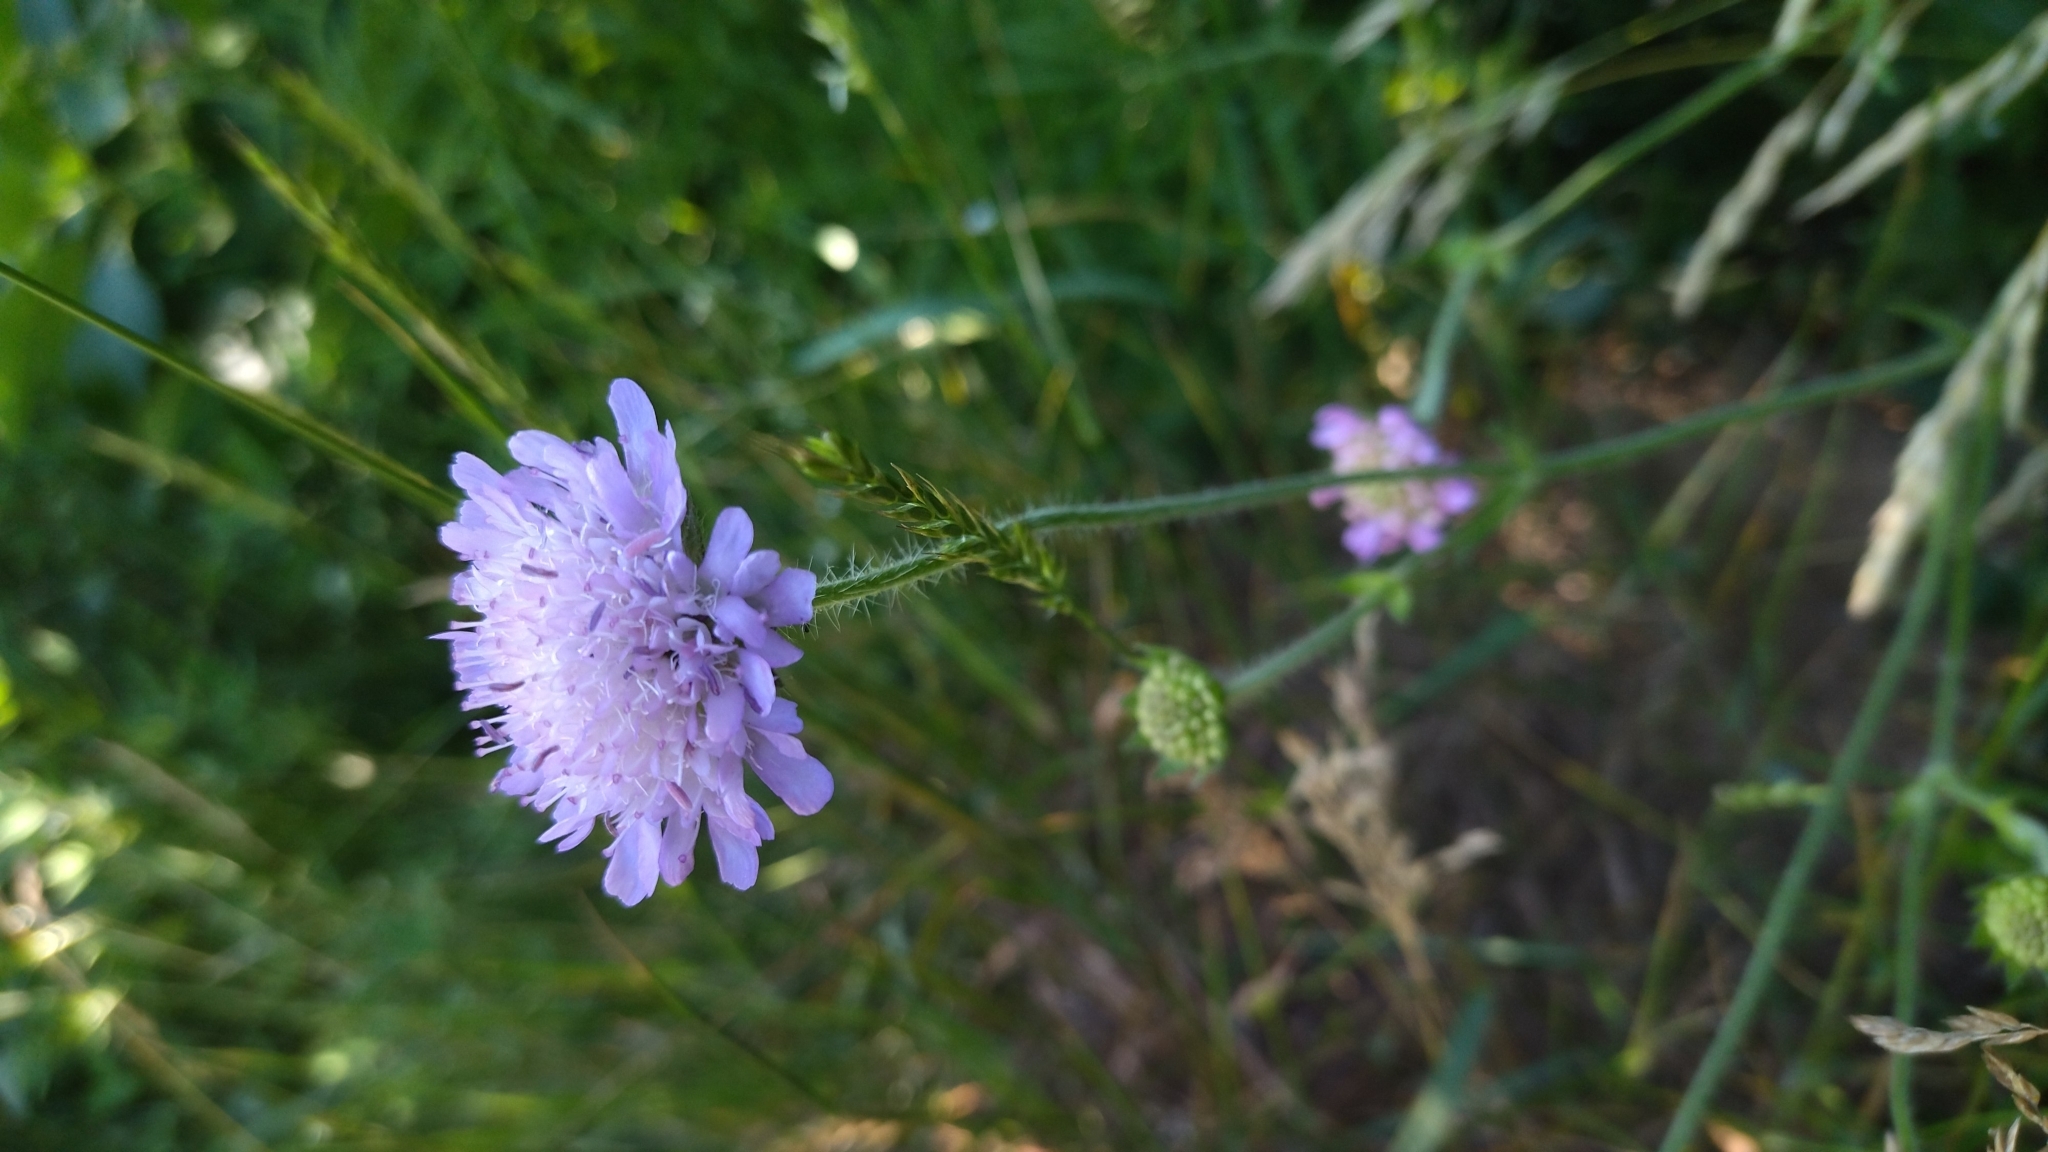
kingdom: Plantae
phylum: Tracheophyta
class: Magnoliopsida
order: Dipsacales
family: Caprifoliaceae
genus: Knautia
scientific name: Knautia arvensis
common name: Field scabiosa
